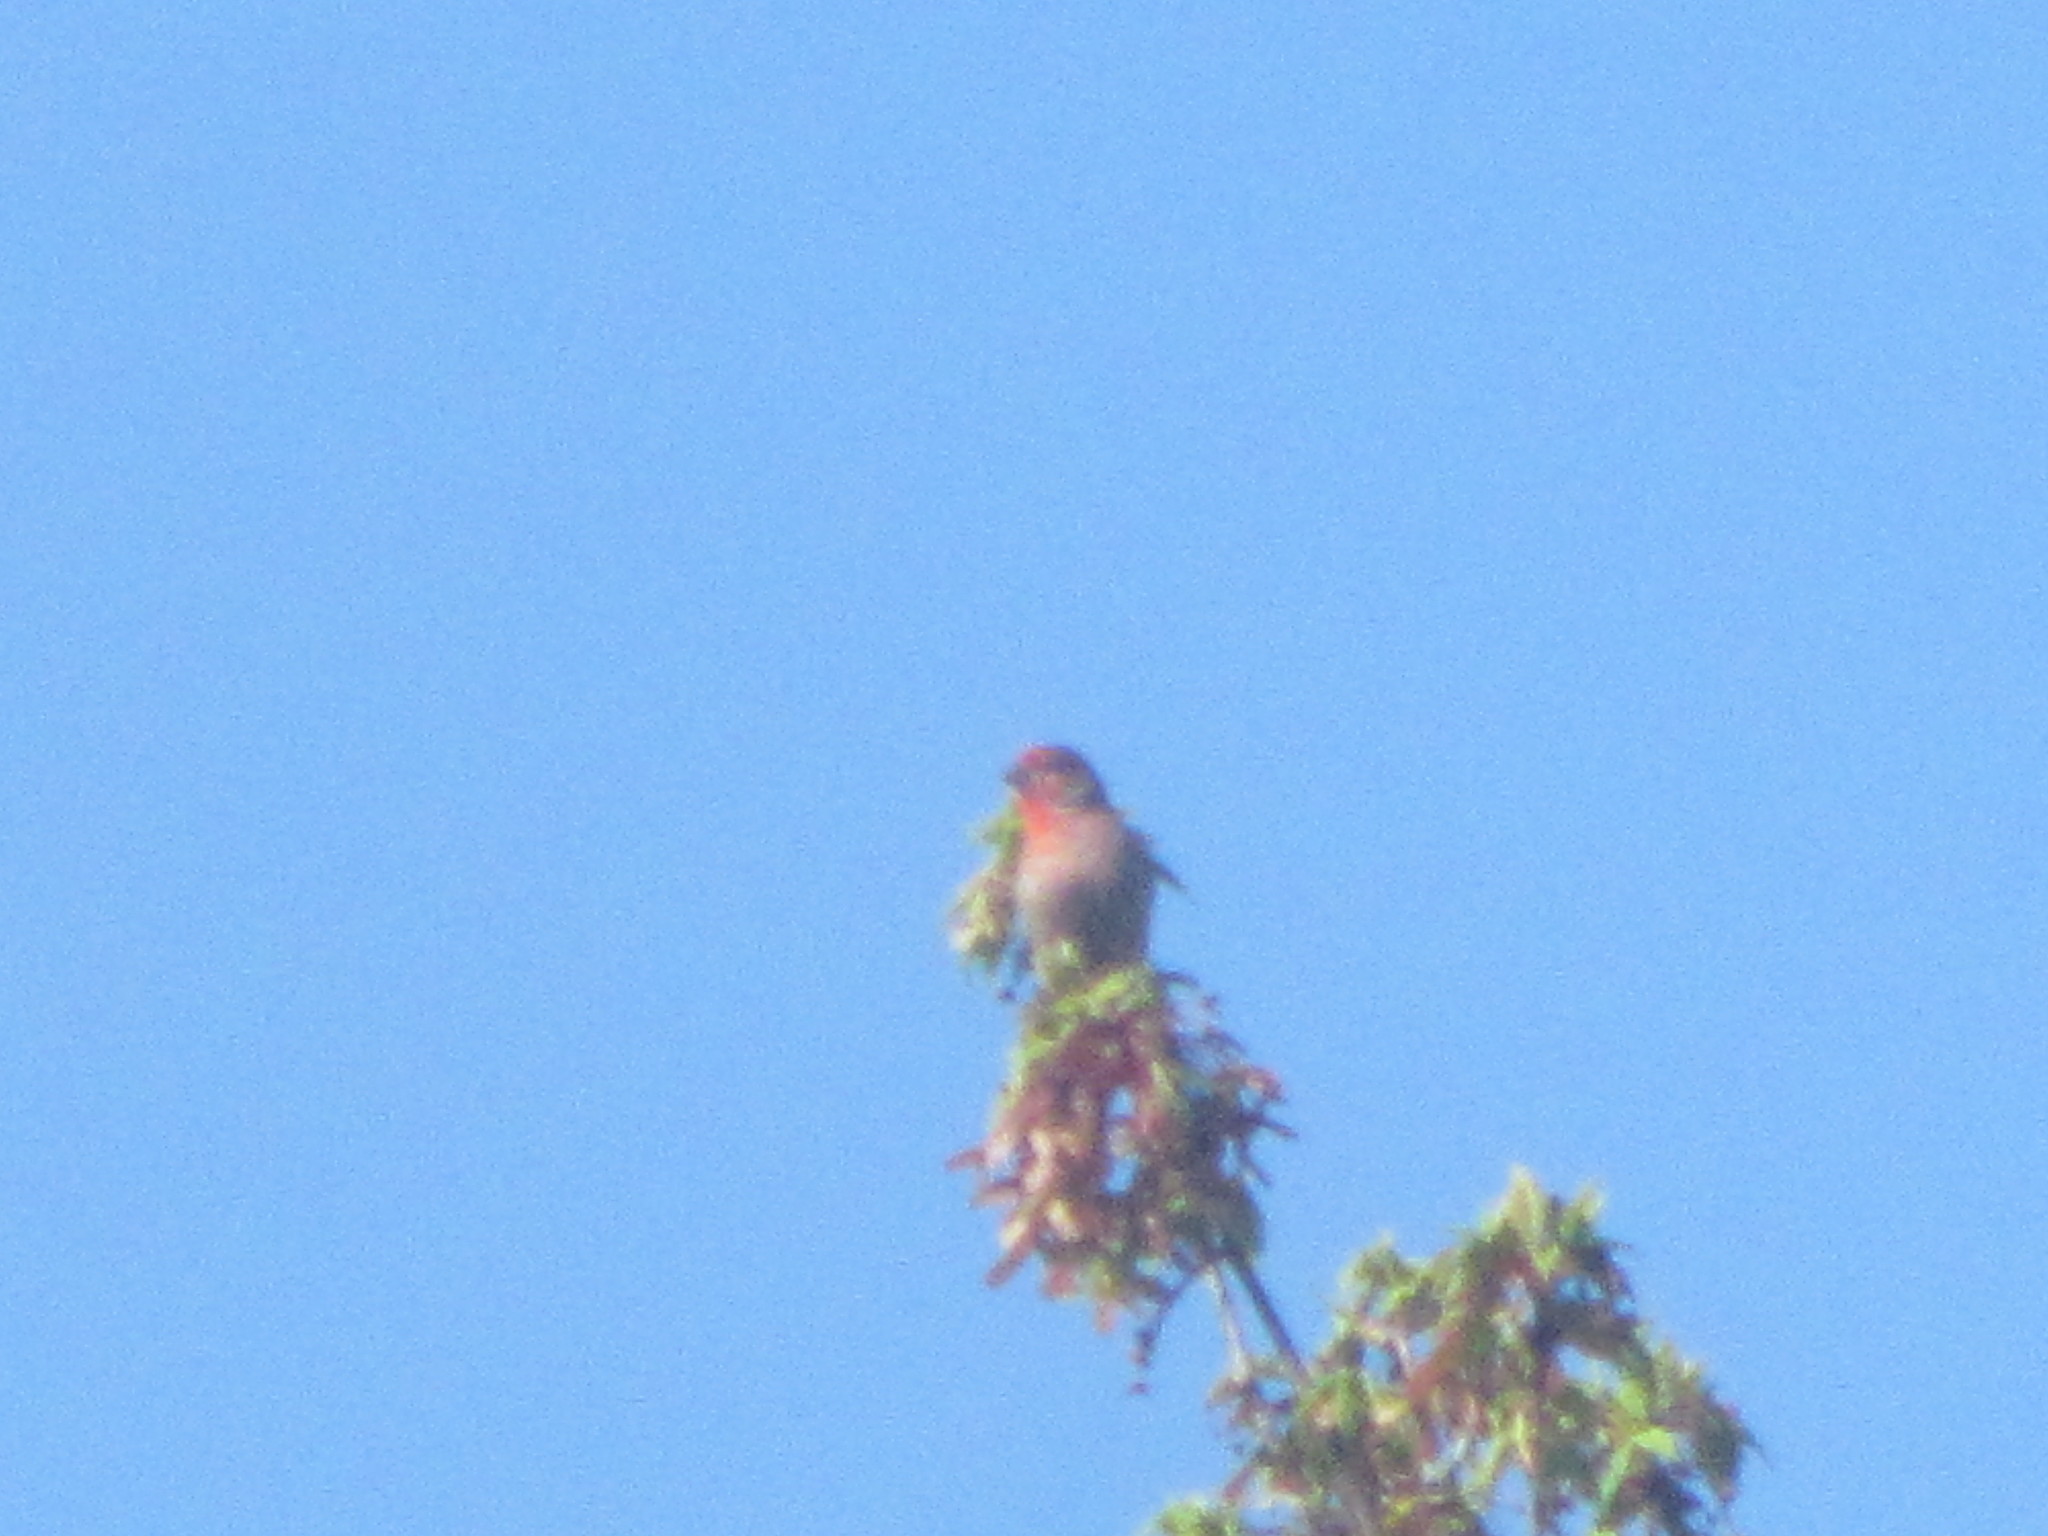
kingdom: Animalia
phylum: Chordata
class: Aves
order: Passeriformes
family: Fringillidae
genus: Haemorhous
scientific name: Haemorhous mexicanus
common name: House finch
